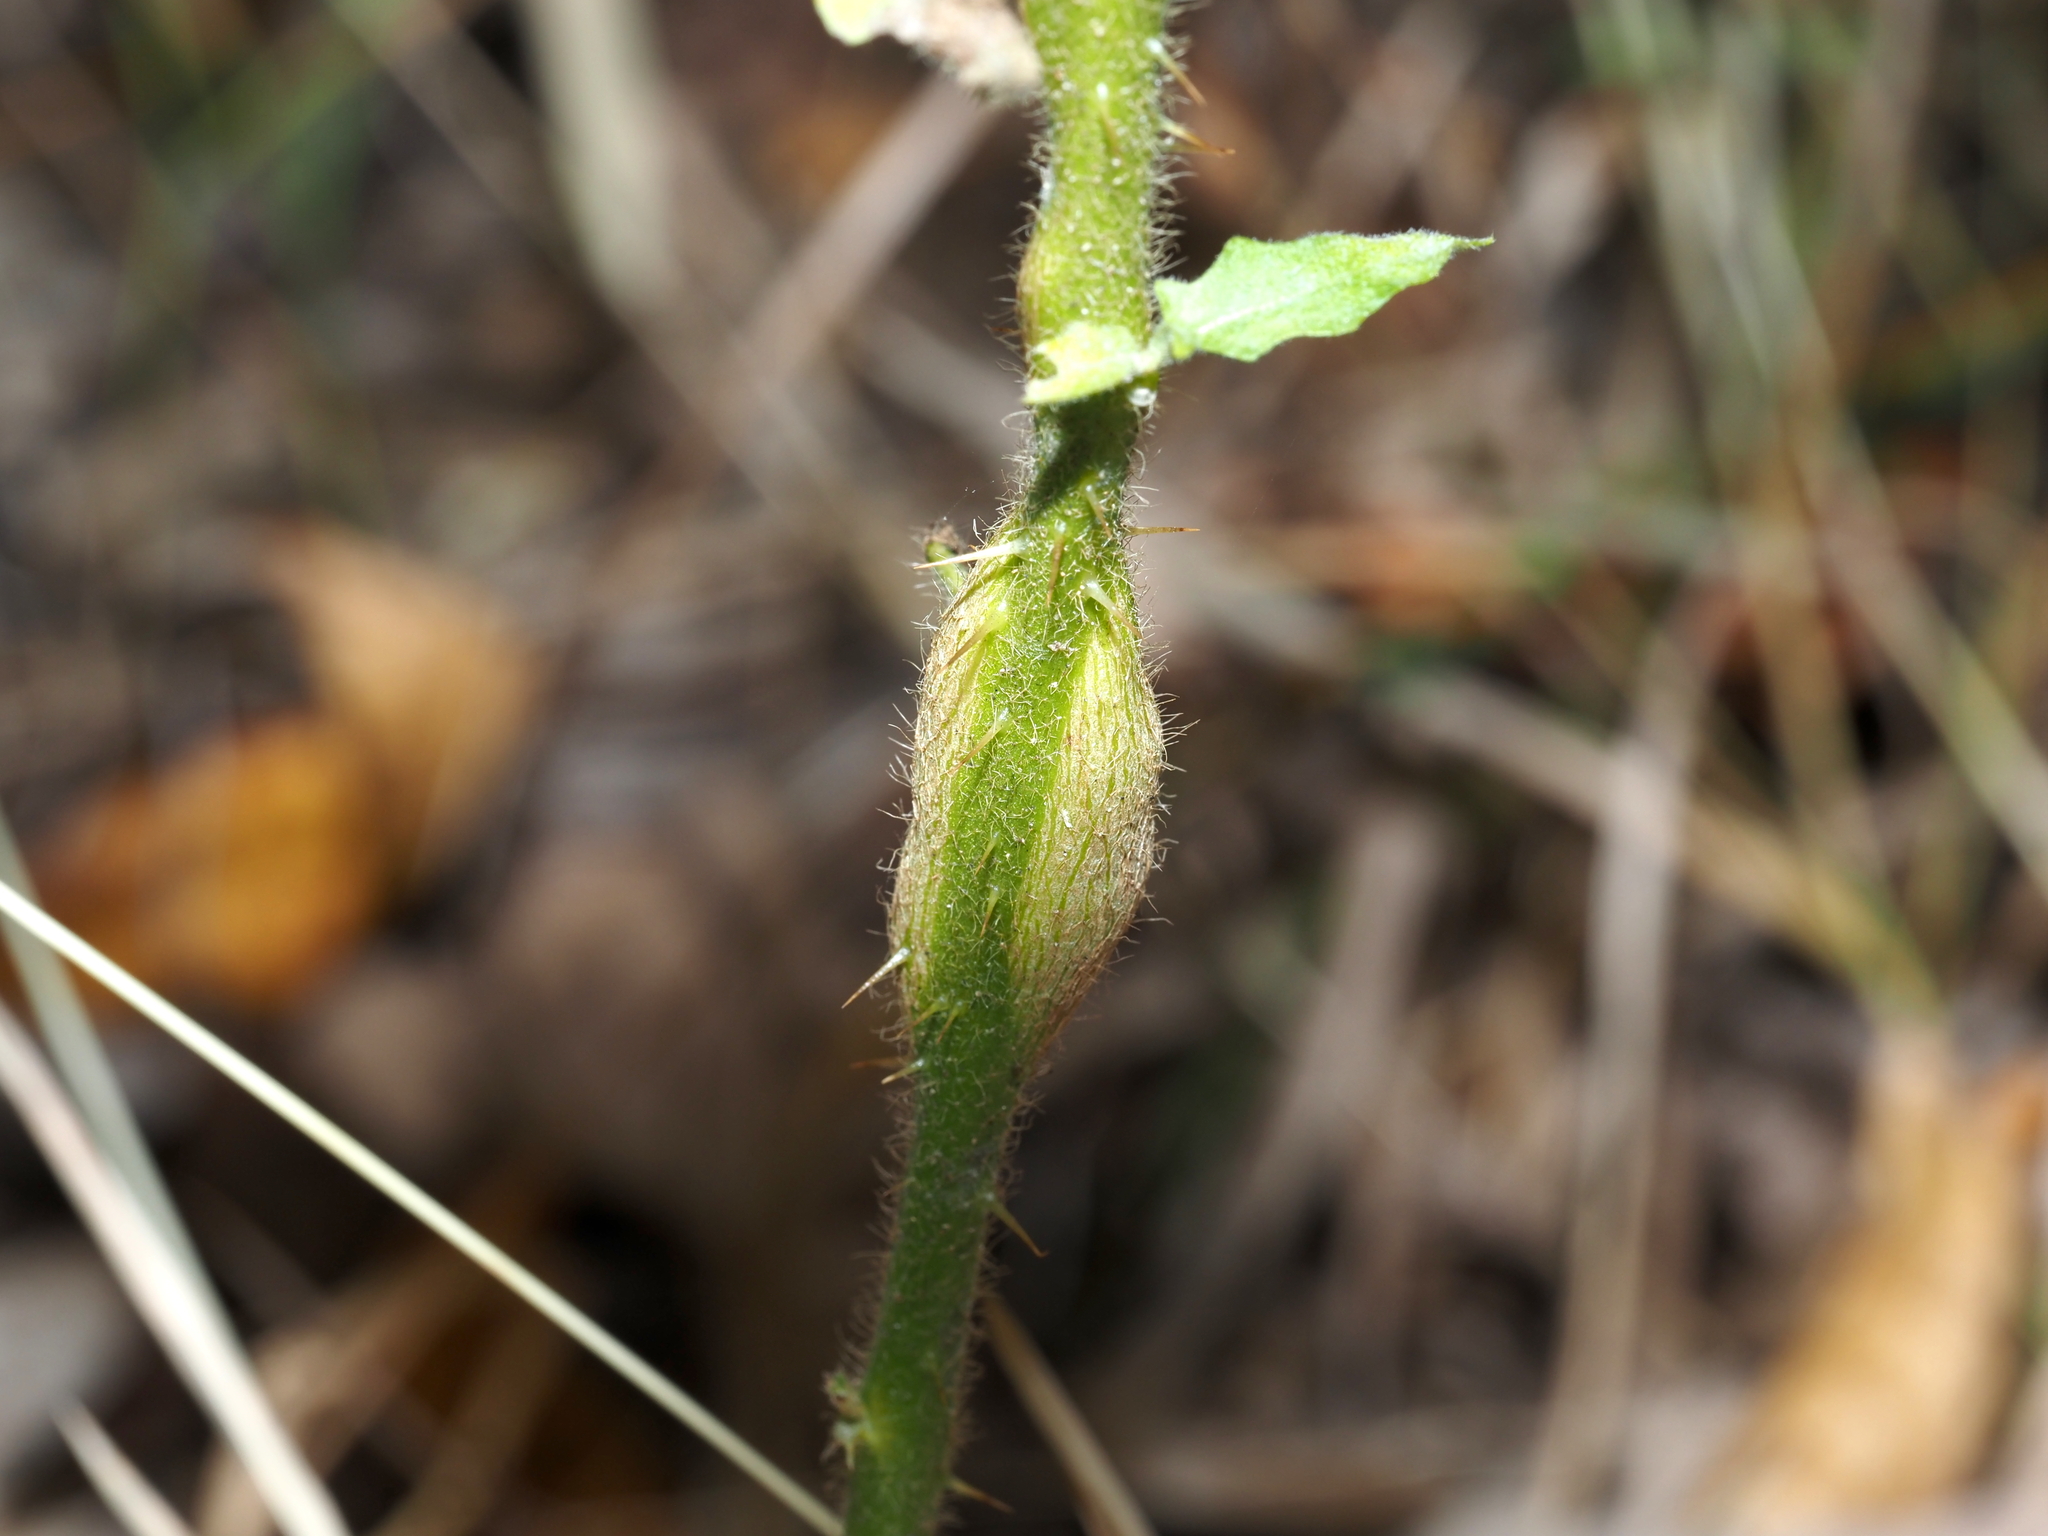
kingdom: Animalia
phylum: Arthropoda
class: Insecta
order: Diptera
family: Cecidomyiidae
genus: Lasioptera
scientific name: Lasioptera solani
